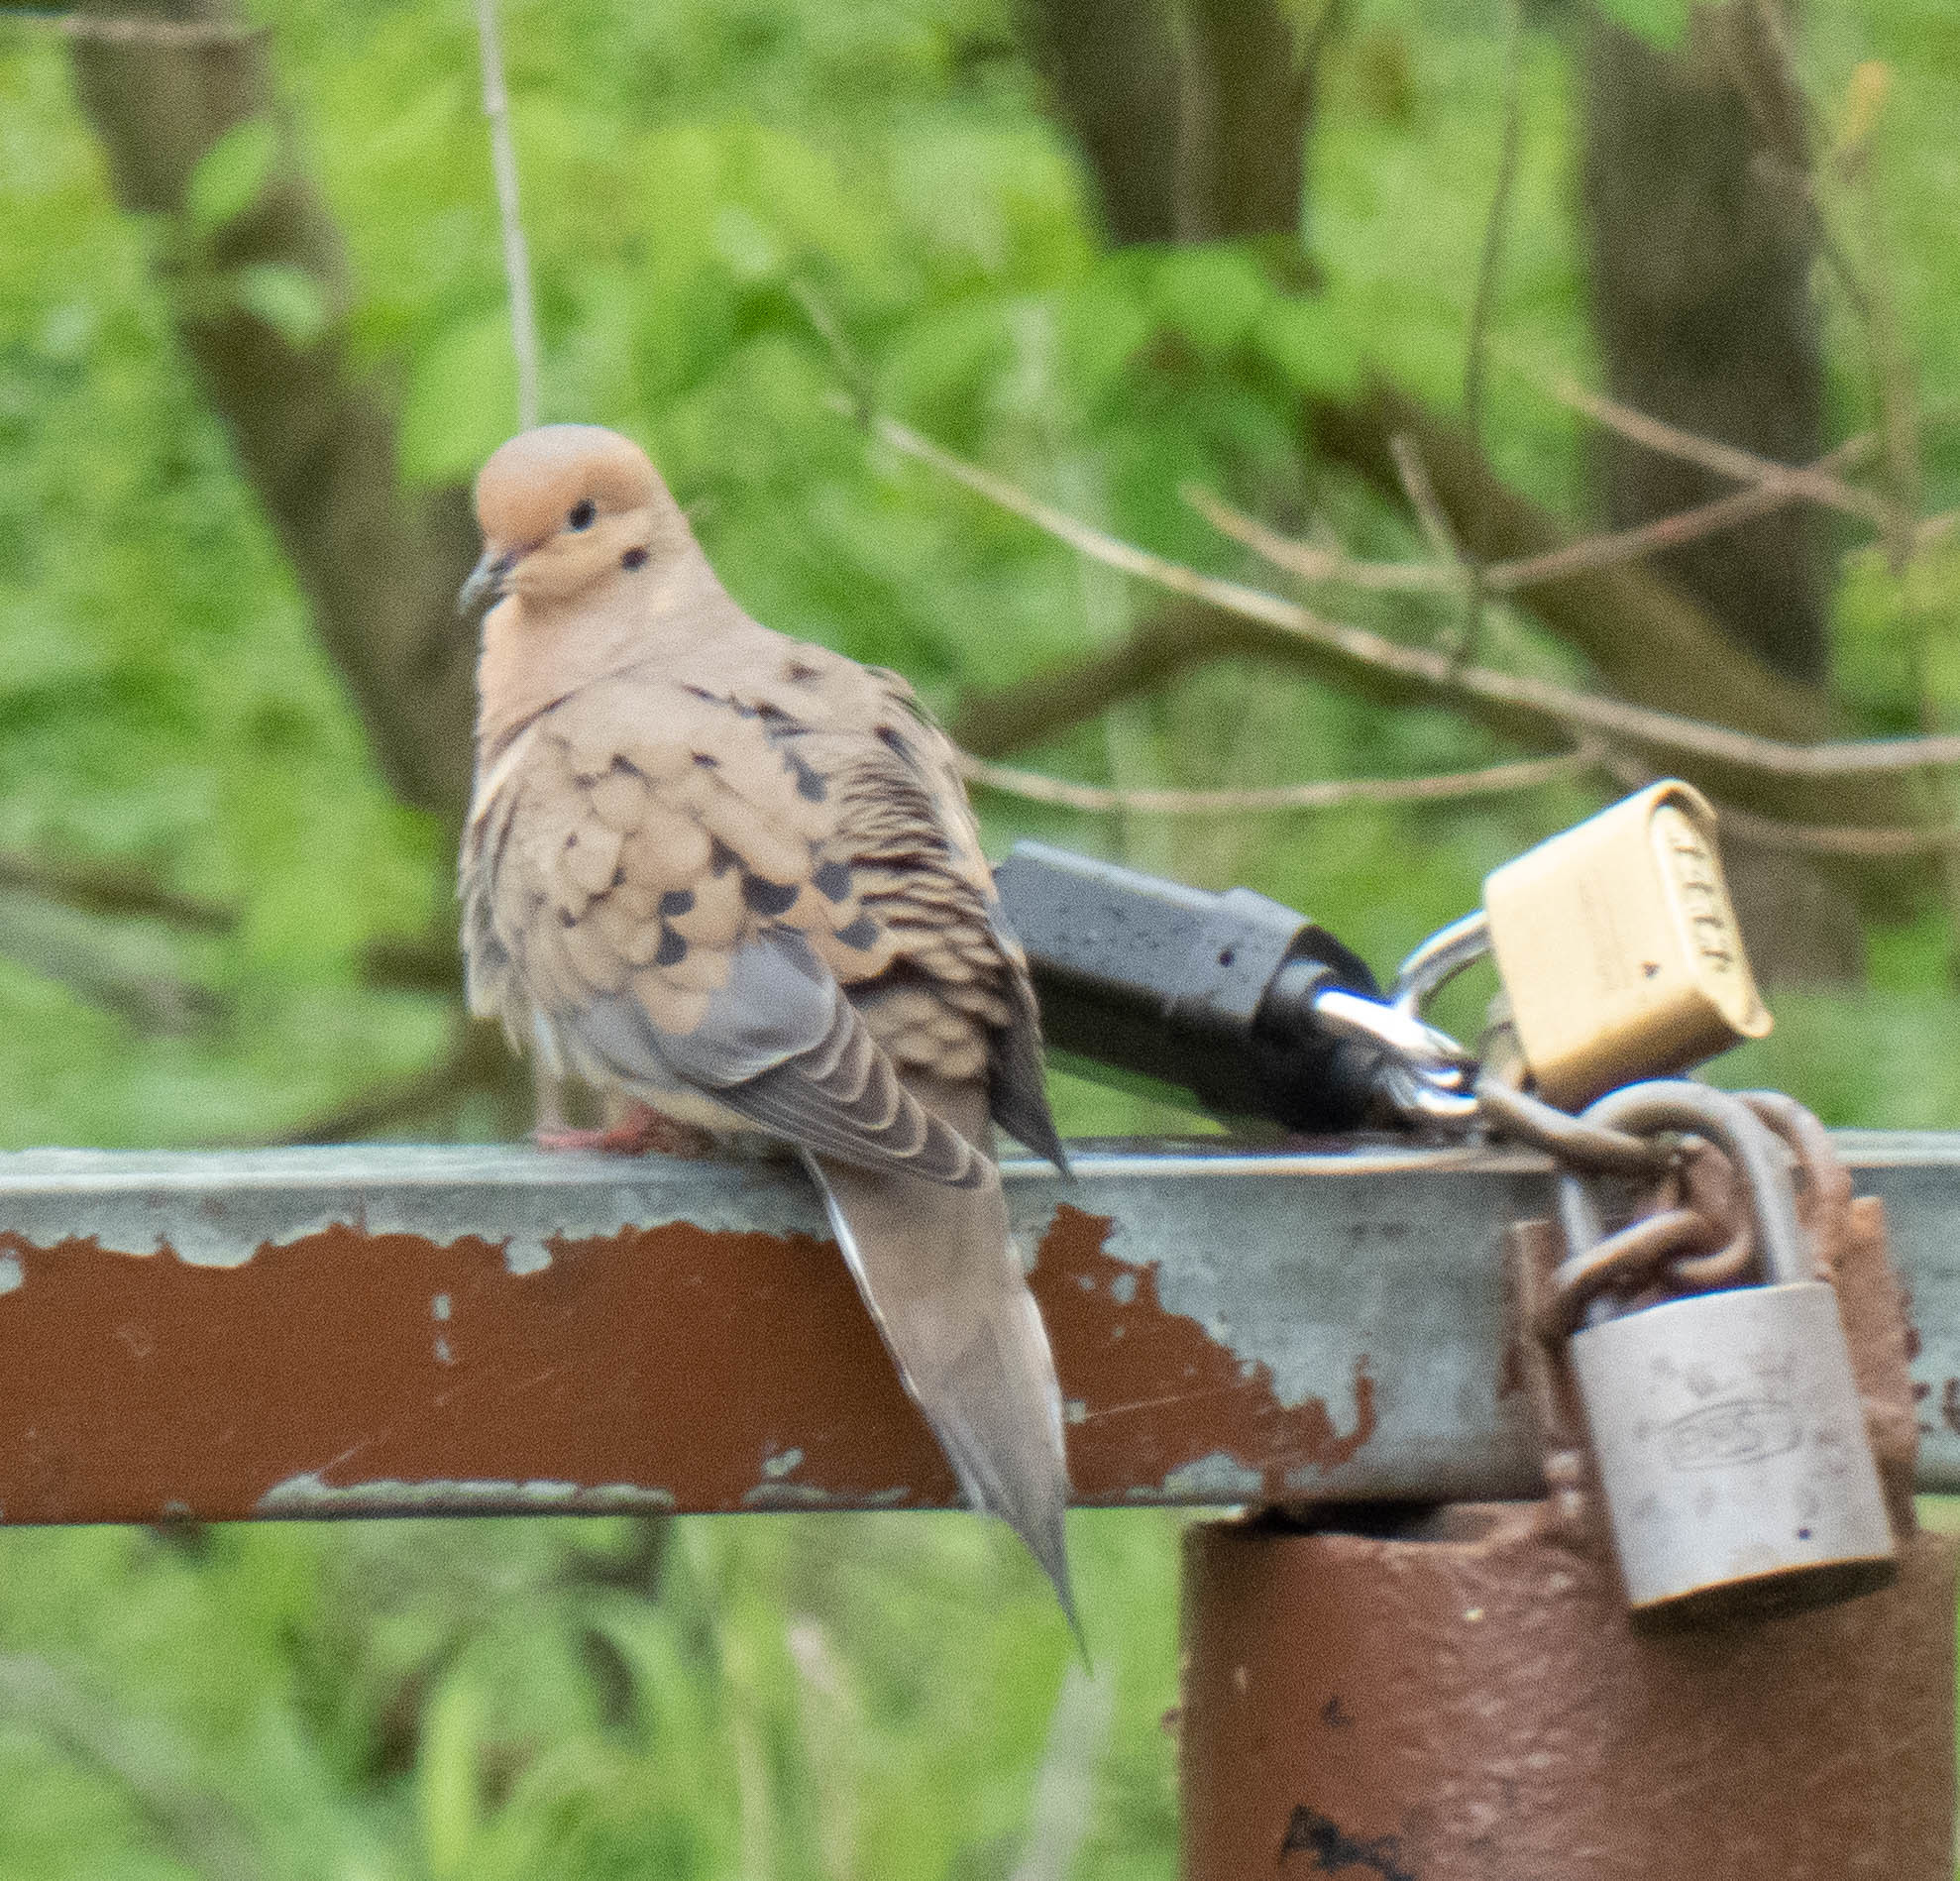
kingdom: Animalia
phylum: Chordata
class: Aves
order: Columbiformes
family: Columbidae
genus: Zenaida
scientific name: Zenaida macroura
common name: Mourning dove
